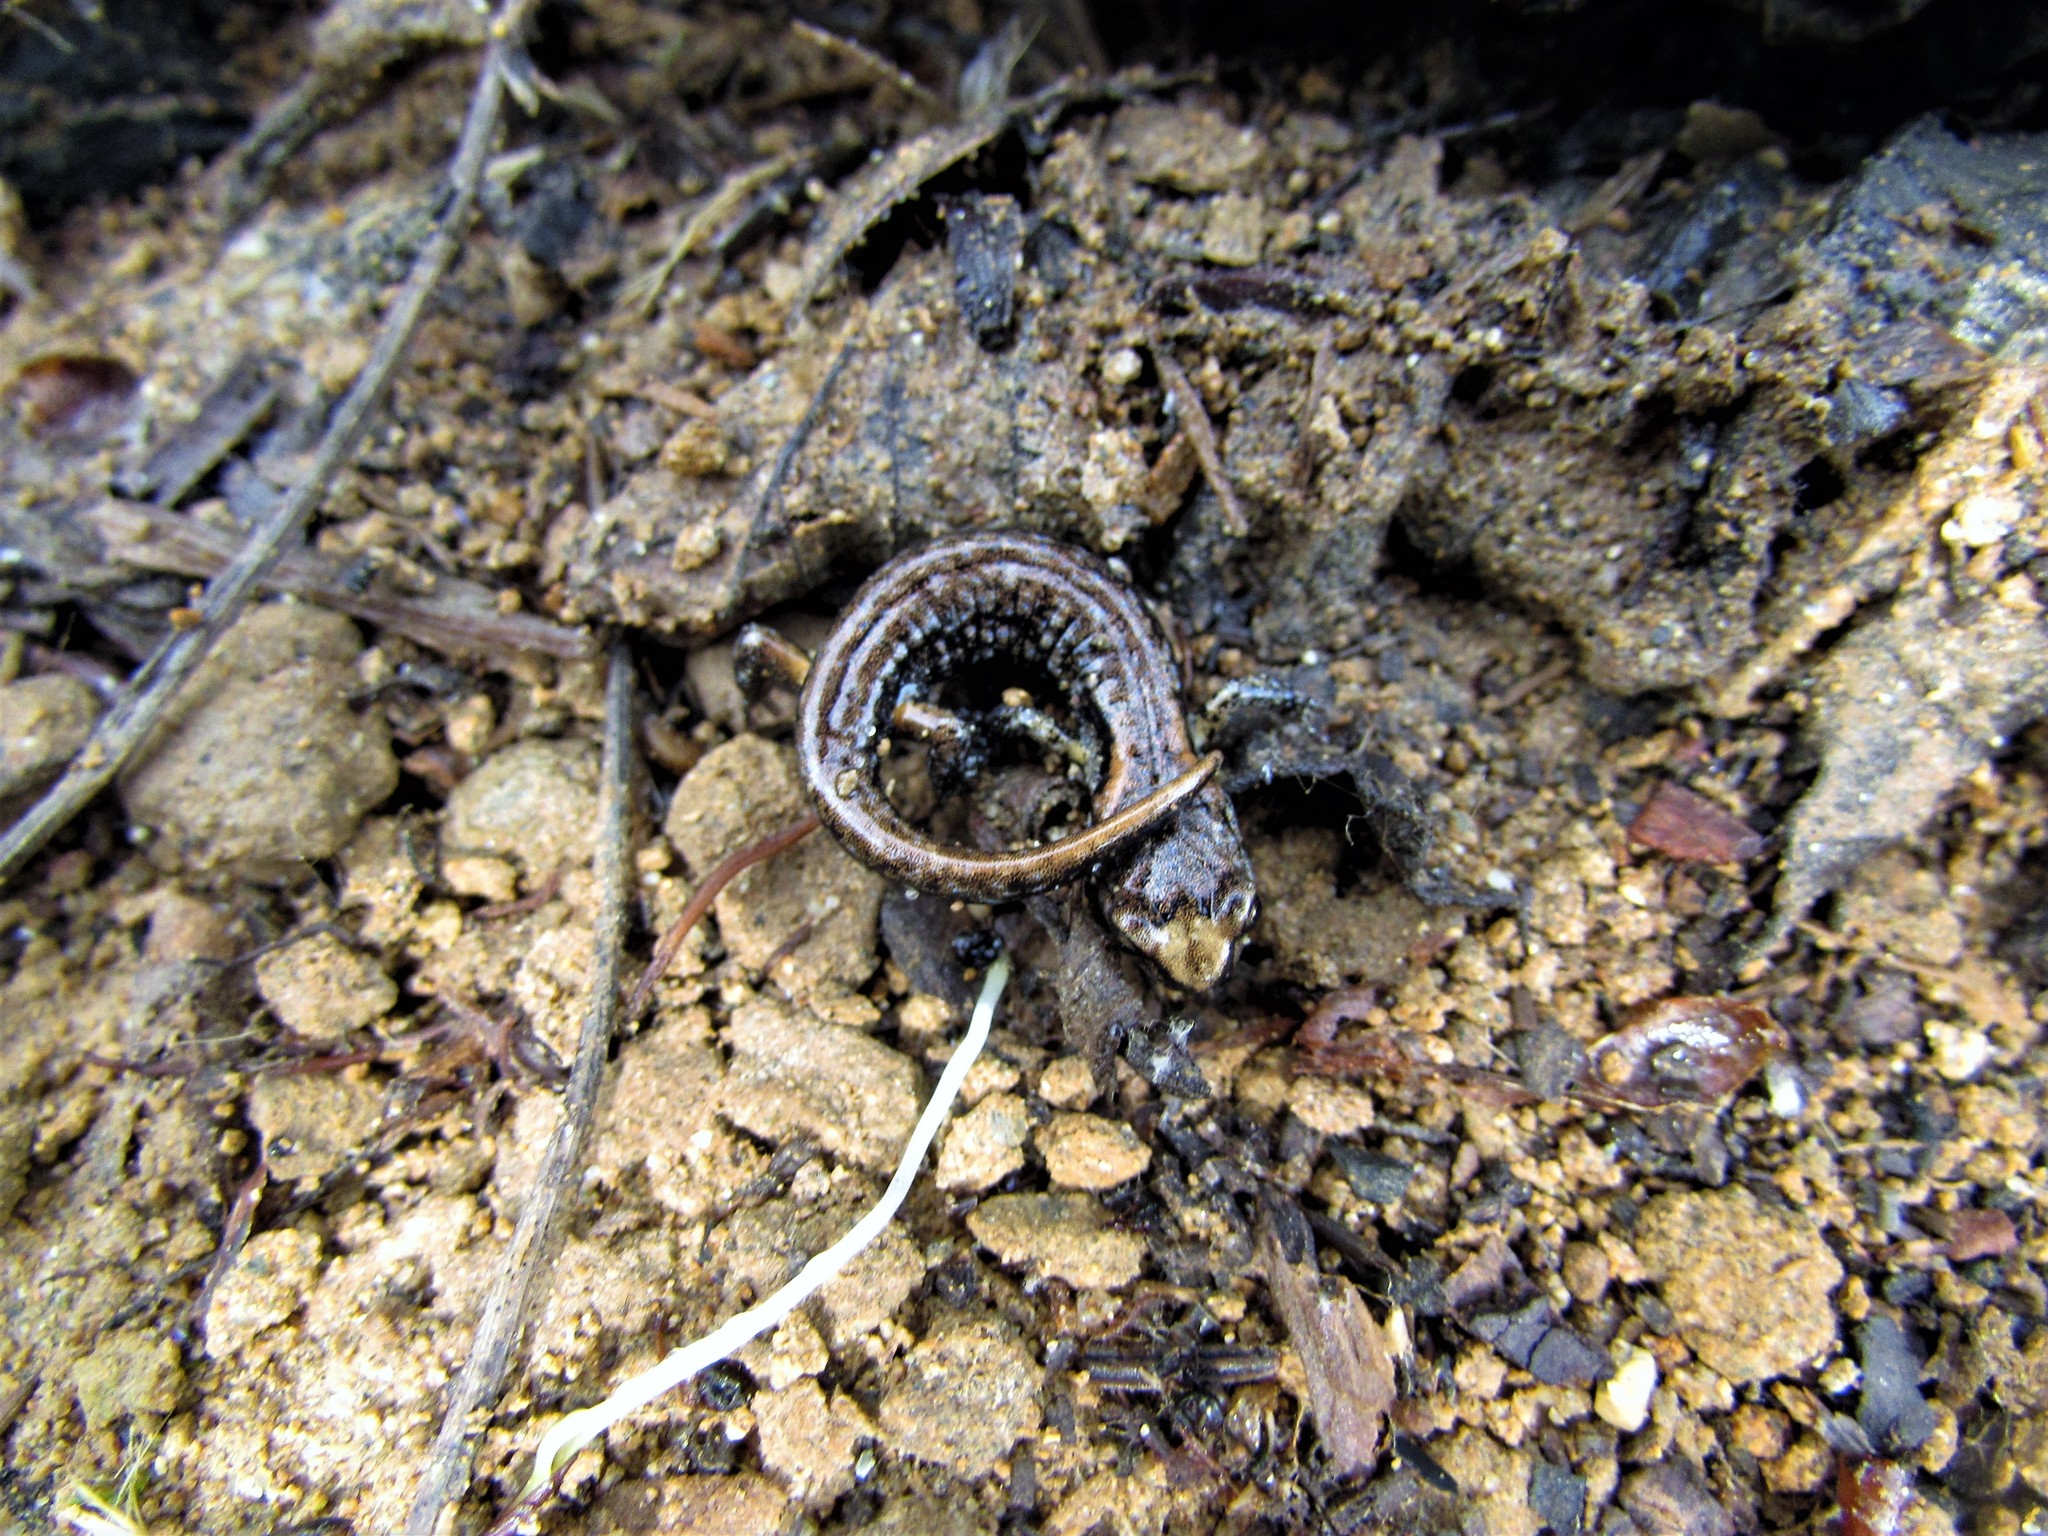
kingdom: Animalia
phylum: Chordata
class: Amphibia
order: Caudata
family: Plethodontidae
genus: Aneides
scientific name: Aneides ferreus
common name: Clouded salamander
